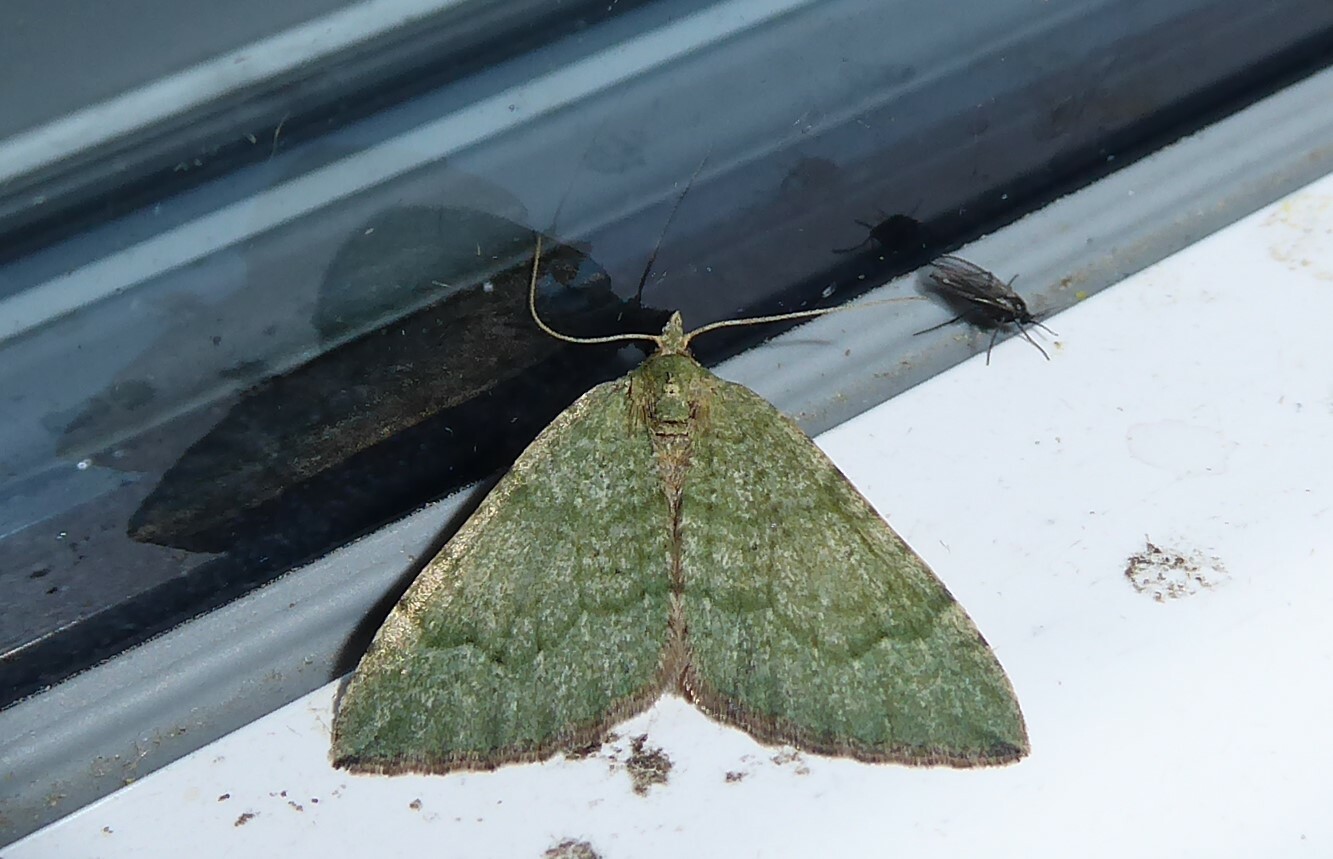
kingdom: Animalia
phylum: Arthropoda
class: Insecta
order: Lepidoptera
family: Geometridae
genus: Epyaxa
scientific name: Epyaxa rosearia
